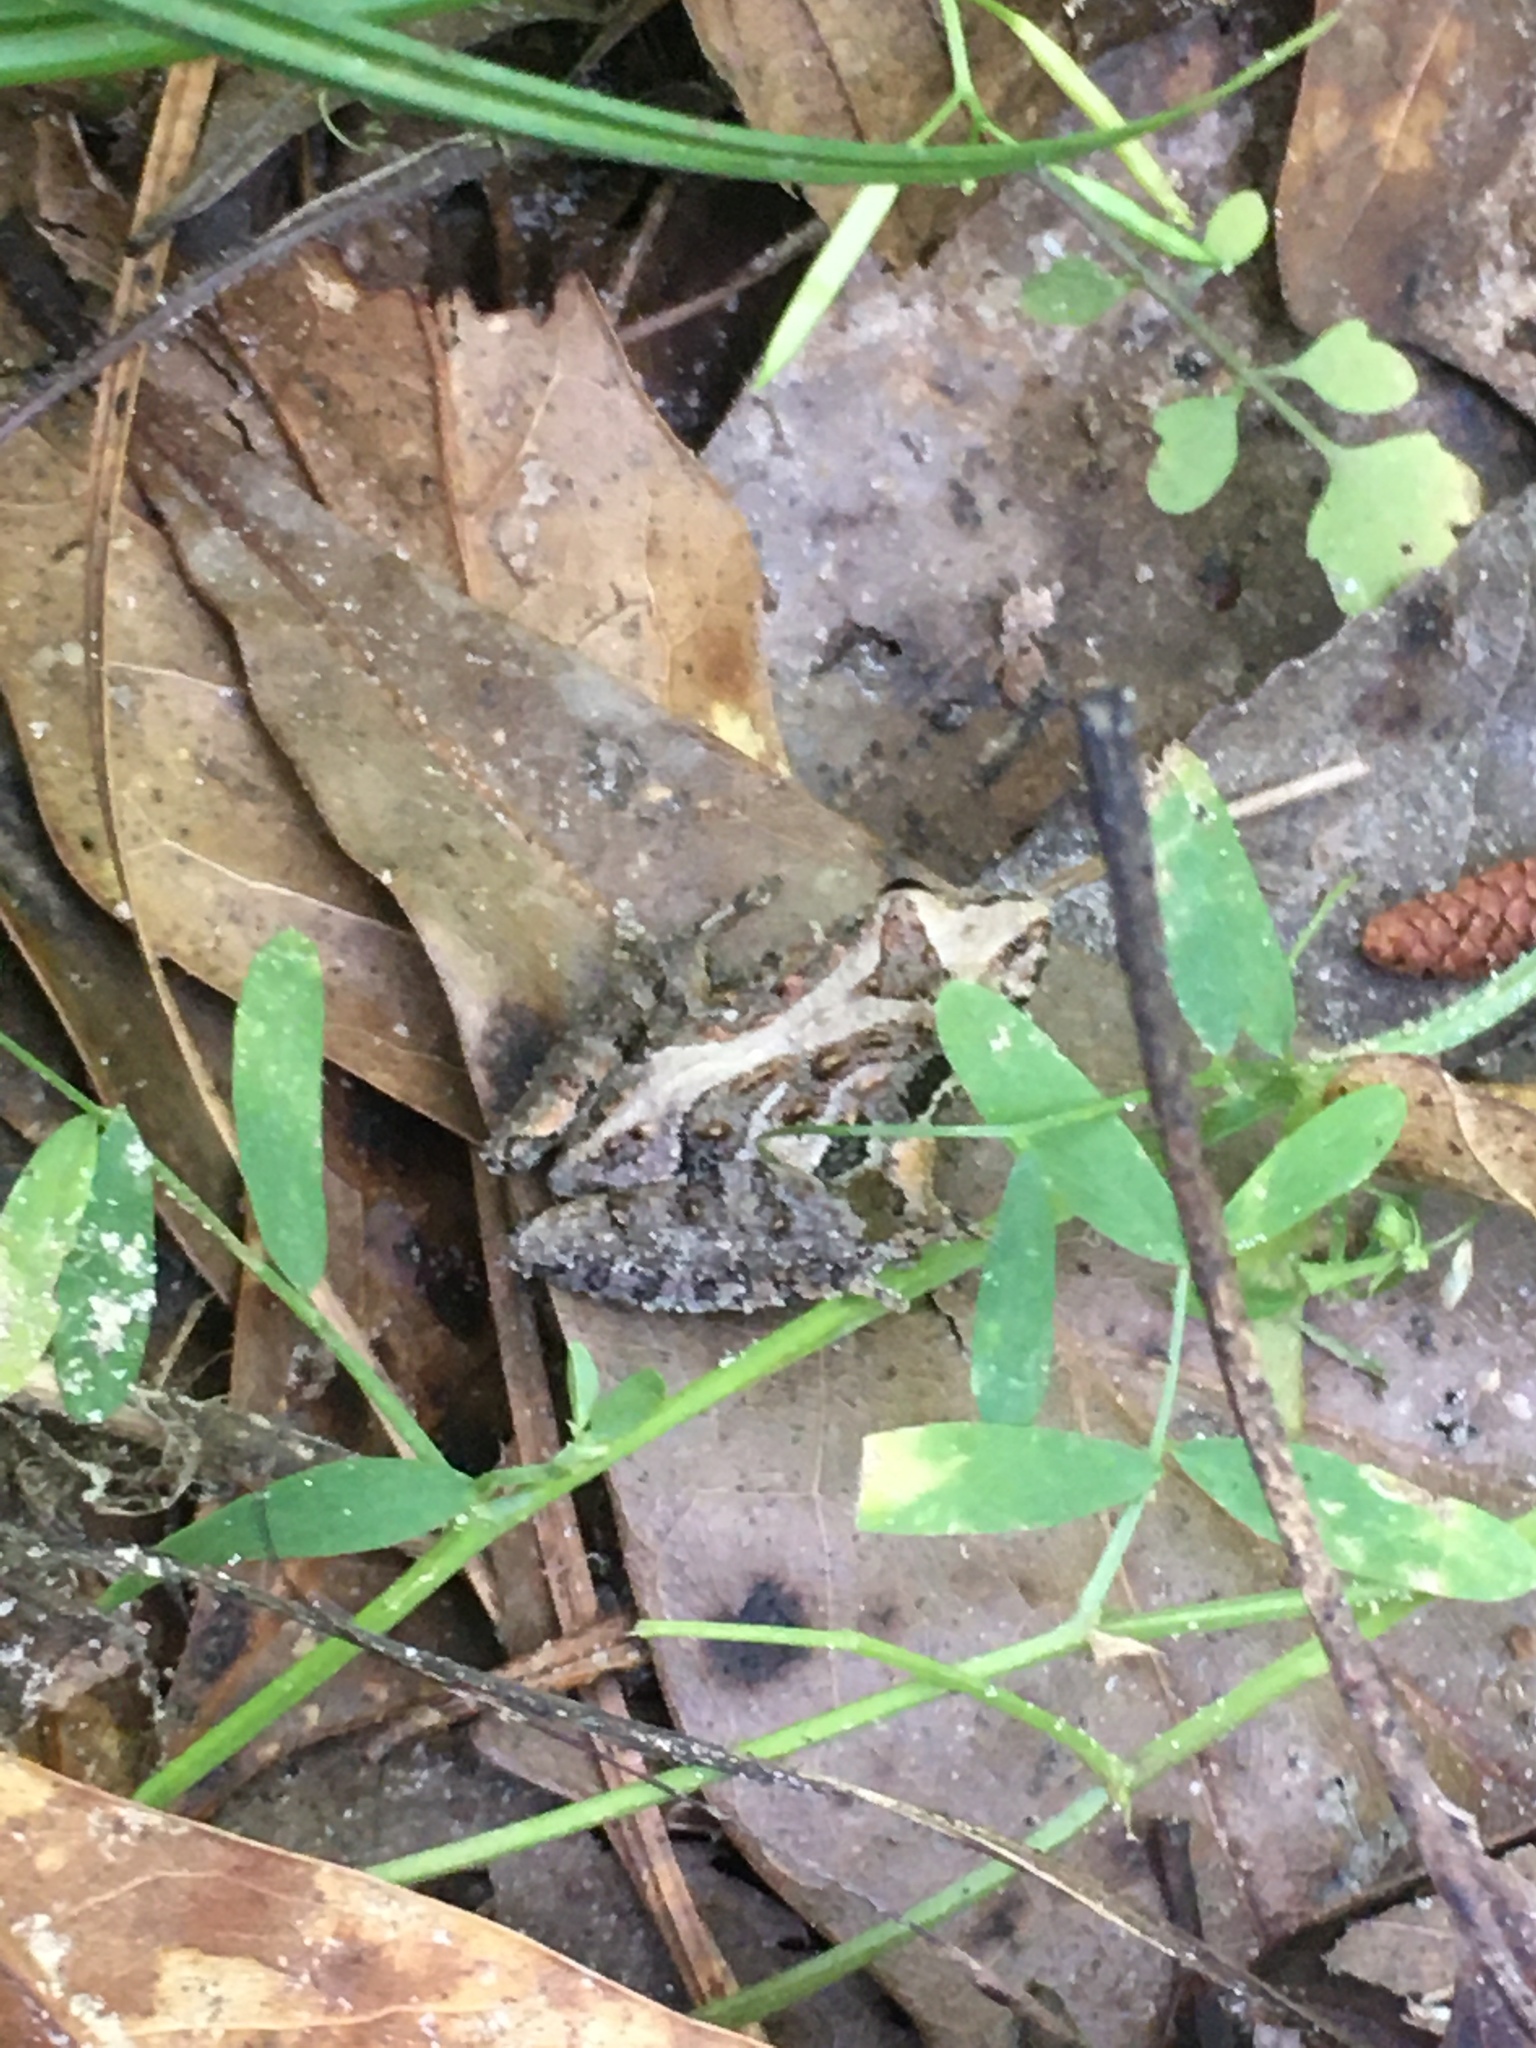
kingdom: Animalia
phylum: Chordata
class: Amphibia
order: Anura
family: Hylidae
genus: Acris
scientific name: Acris gryllus
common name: Southern cricket frog
